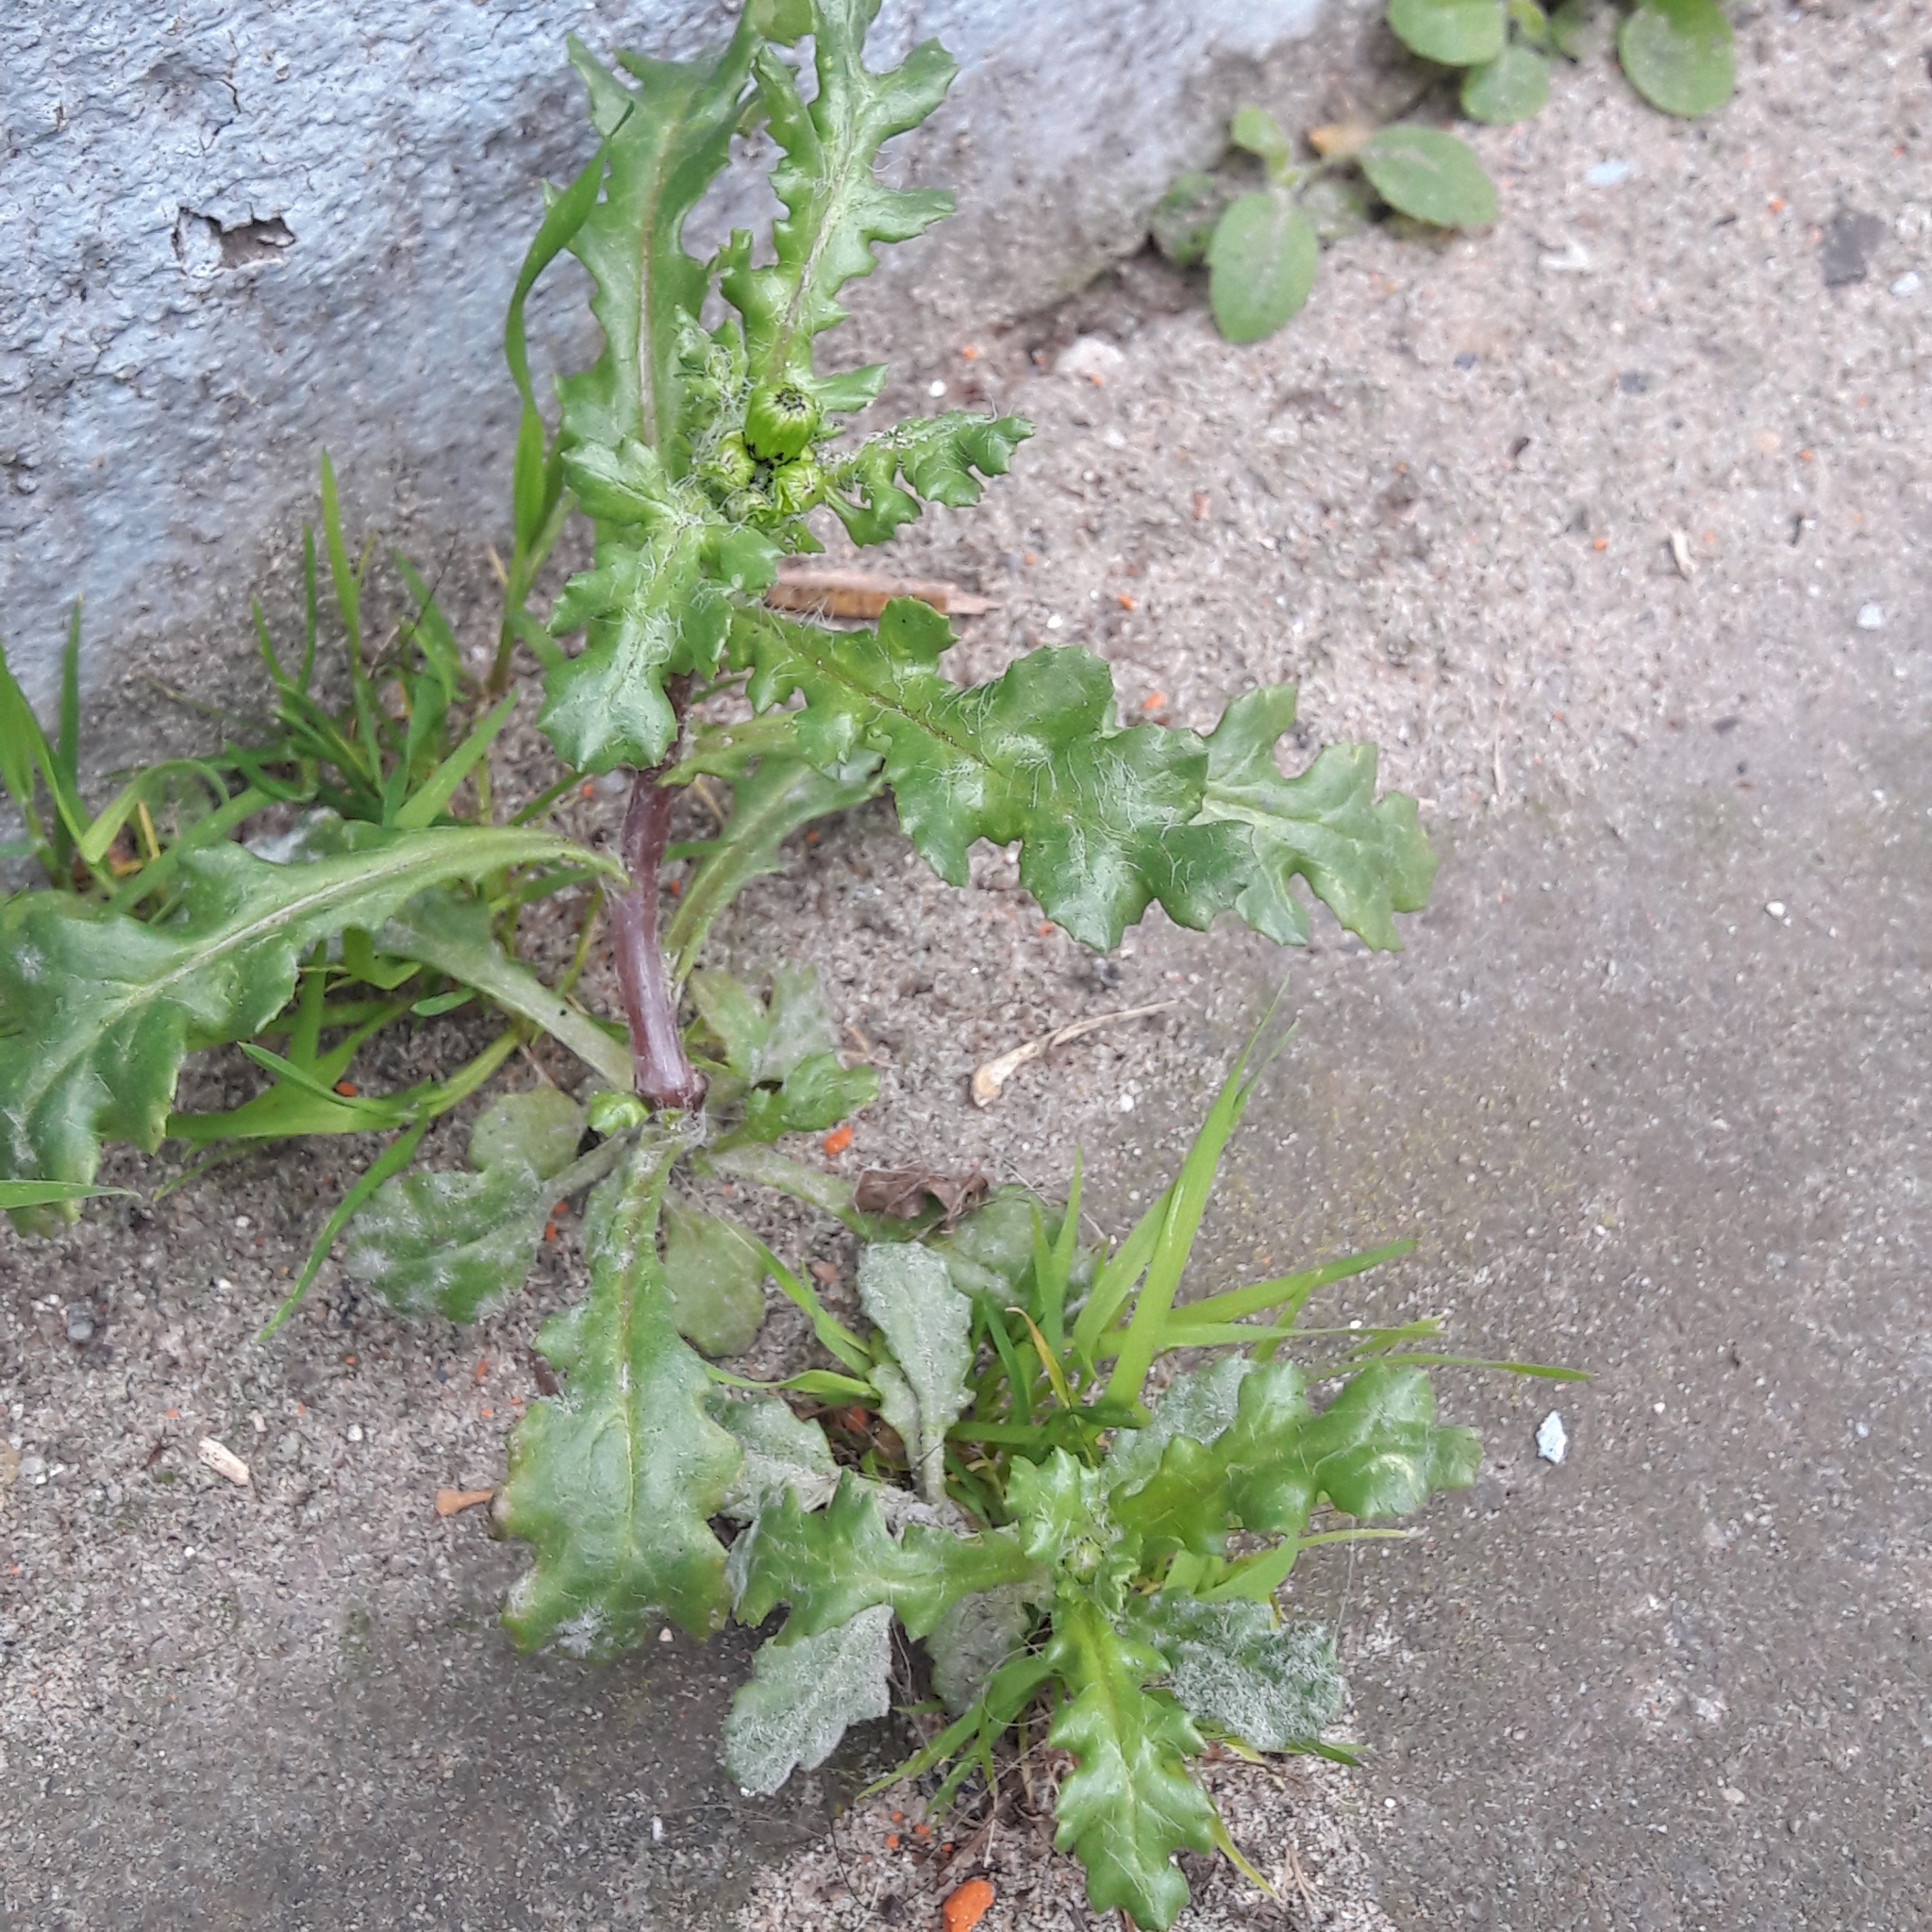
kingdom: Plantae
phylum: Tracheophyta
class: Magnoliopsida
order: Asterales
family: Asteraceae
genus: Senecio
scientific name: Senecio vulgaris
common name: Old-man-in-the-spring
